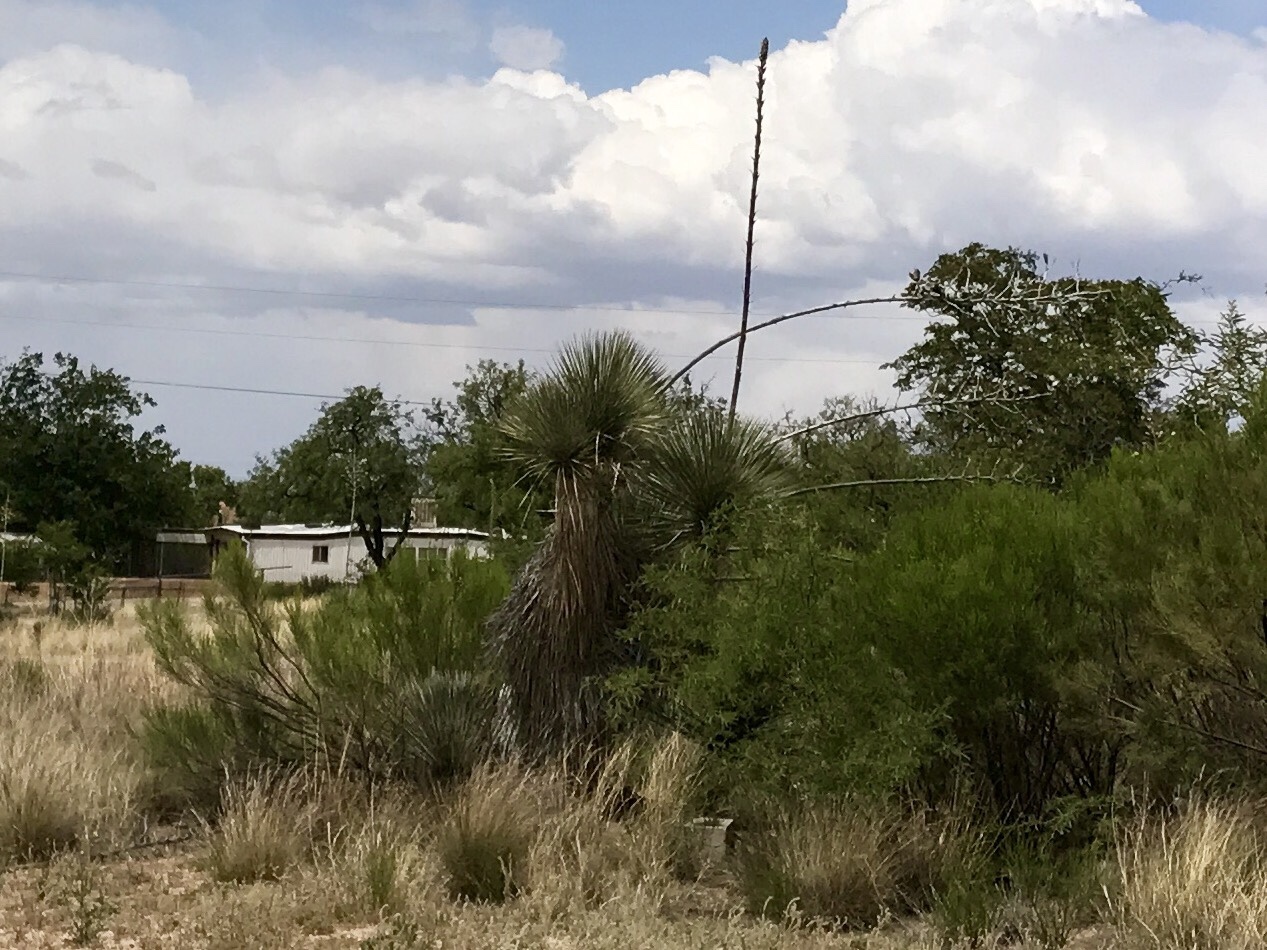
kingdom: Plantae
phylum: Tracheophyta
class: Liliopsida
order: Asparagales
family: Asparagaceae
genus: Yucca
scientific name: Yucca elata
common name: Palmella
